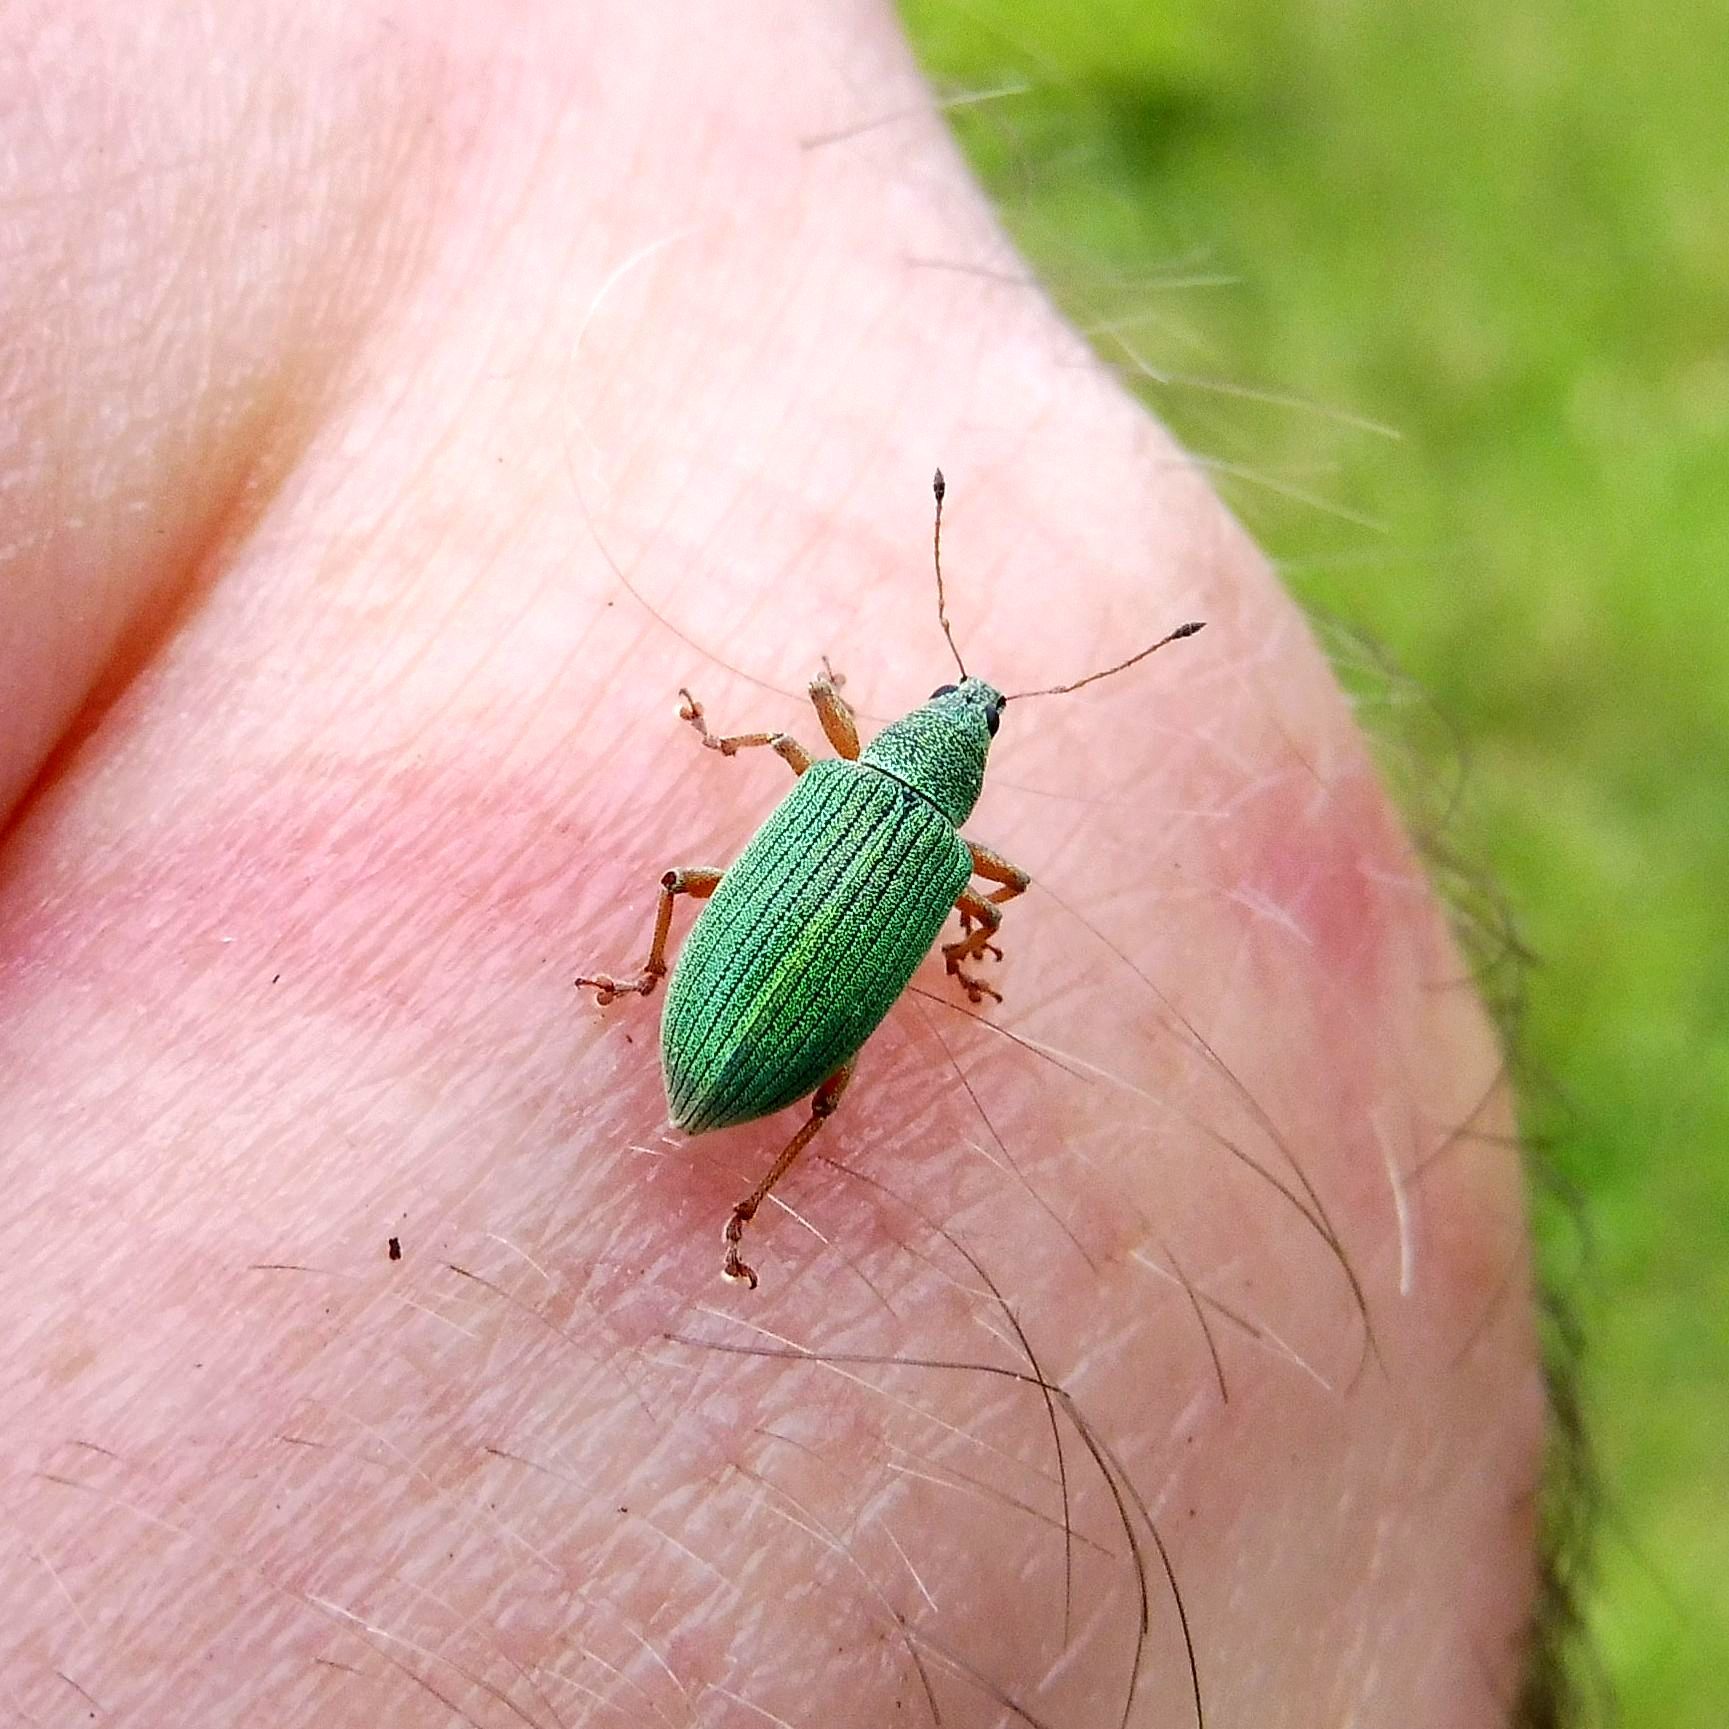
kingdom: Animalia
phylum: Arthropoda
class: Insecta
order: Coleoptera
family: Curculionidae
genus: Polydrusus
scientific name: Polydrusus formosus
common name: Weevil
